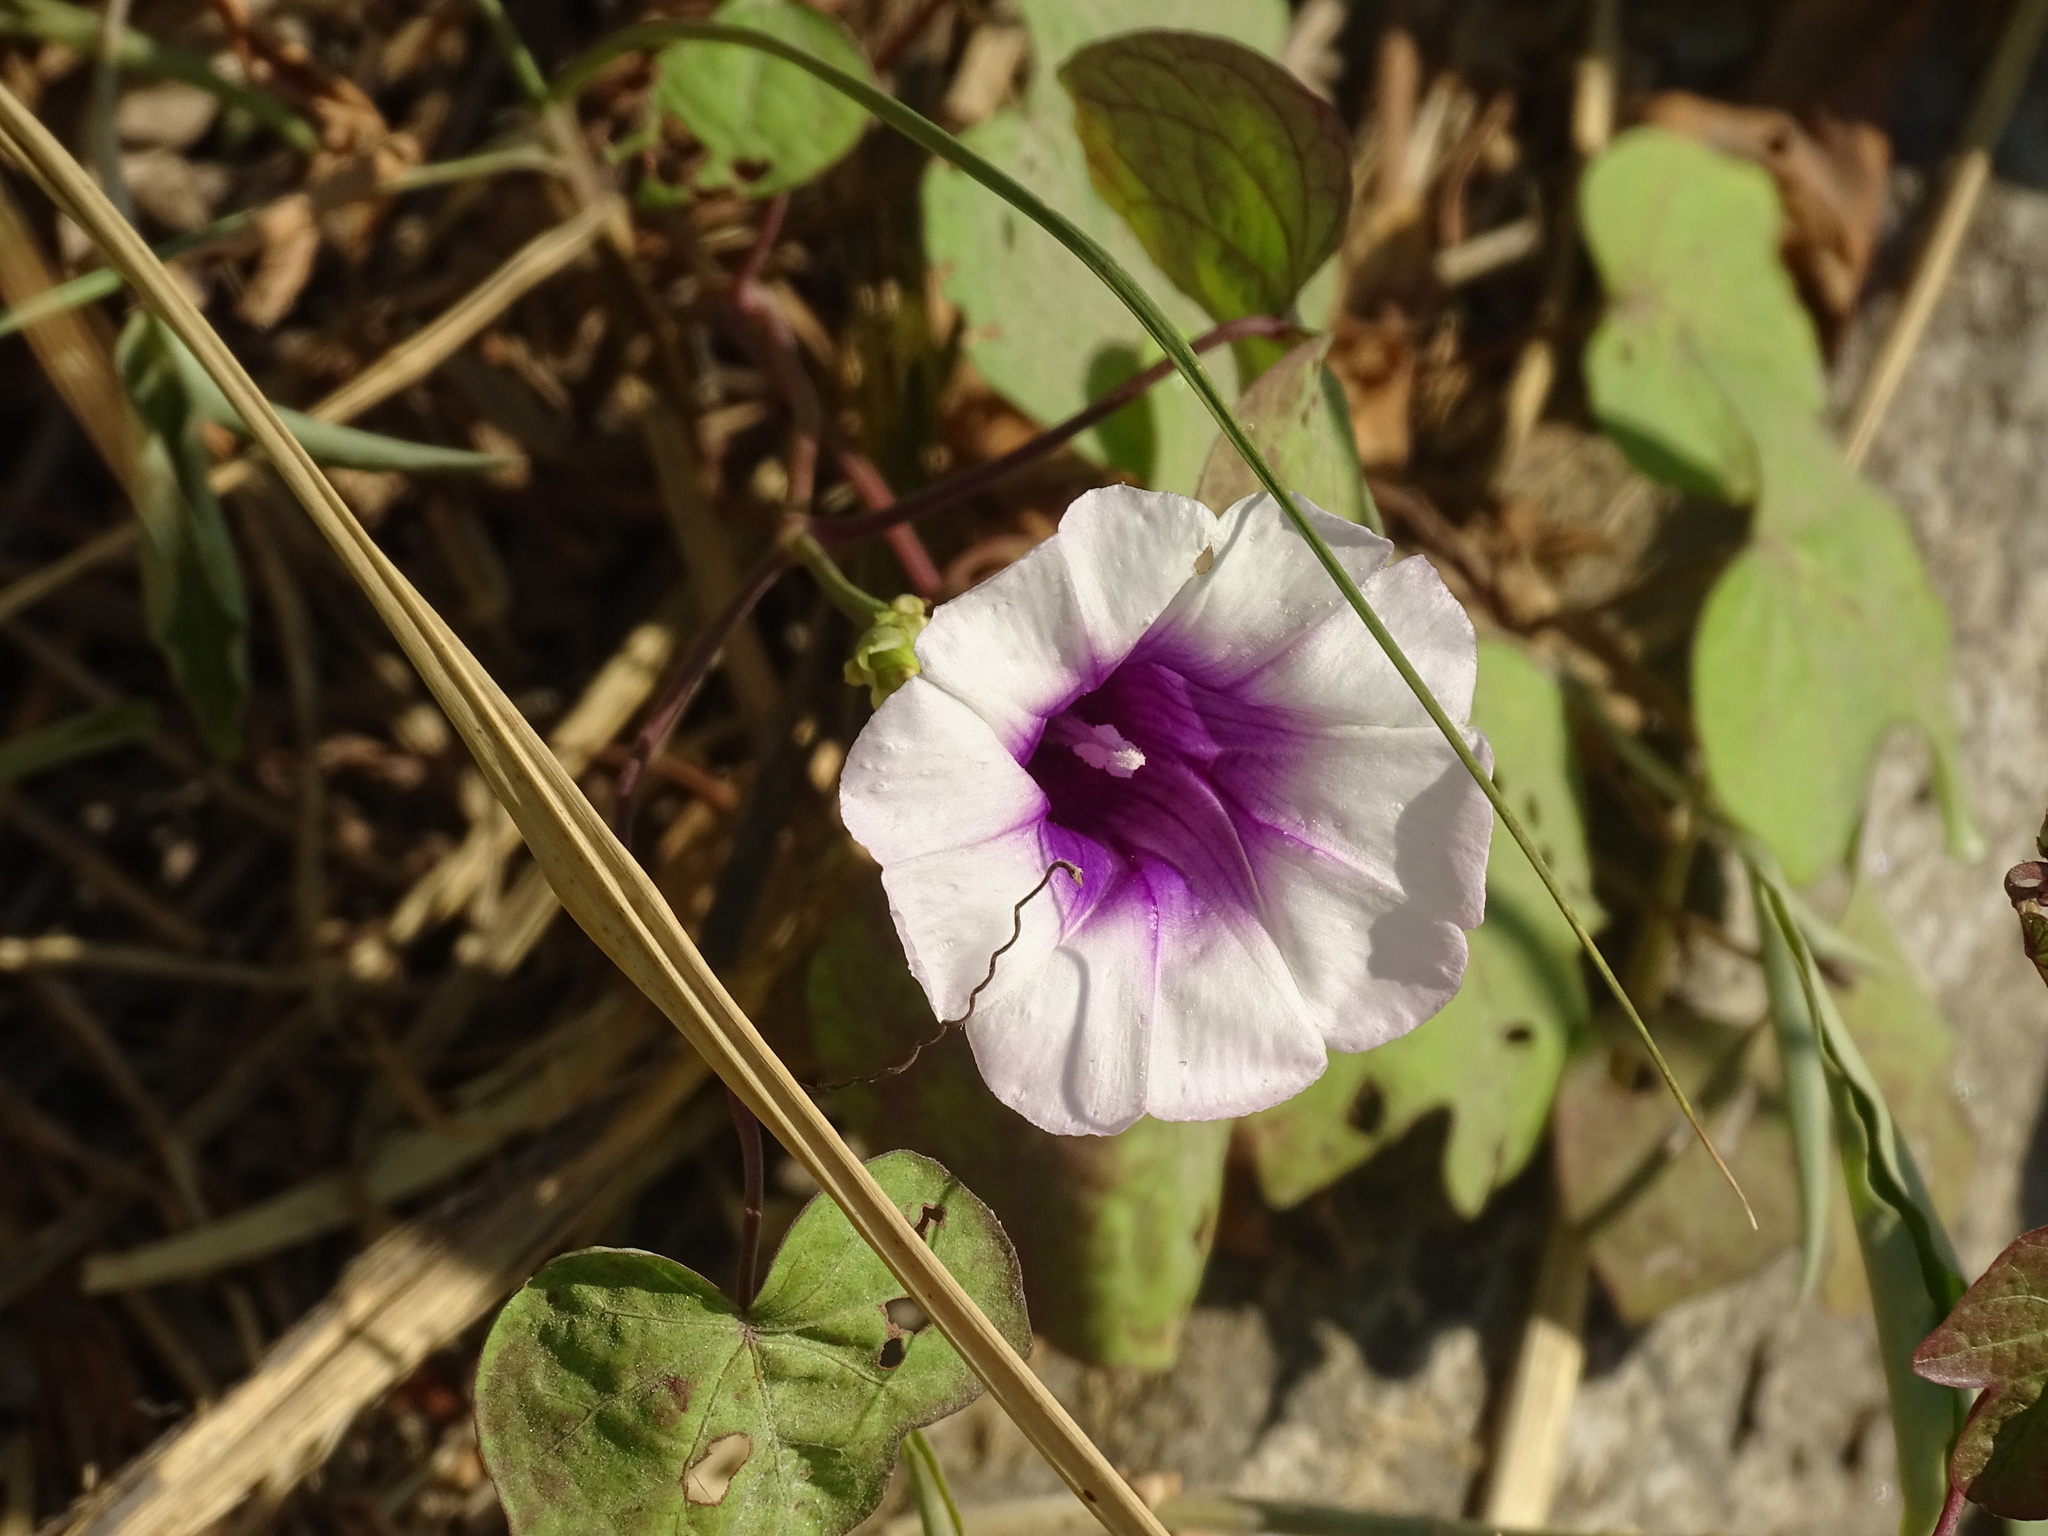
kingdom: Plantae
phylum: Tracheophyta
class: Magnoliopsida
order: Solanales
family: Convolvulaceae
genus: Ipomoea
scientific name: Ipomoea batatas
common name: Sweet-potato
